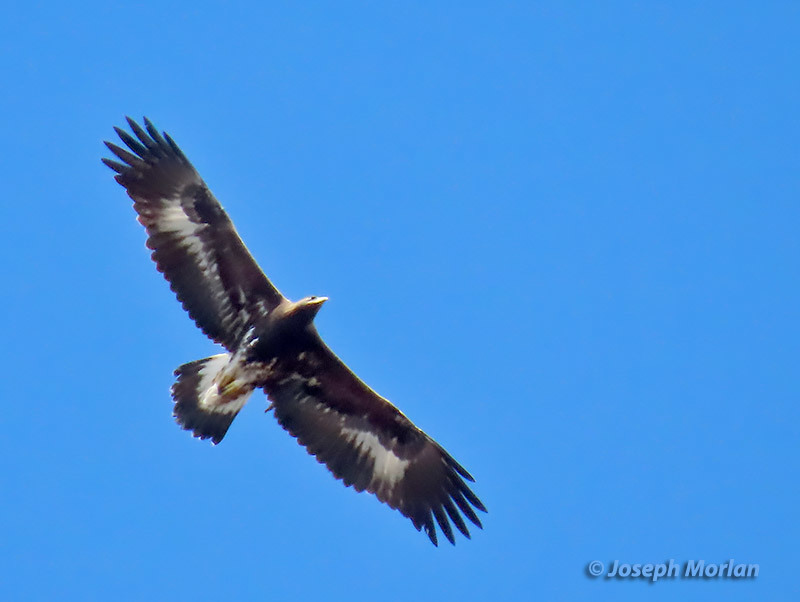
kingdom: Animalia
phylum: Chordata
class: Aves
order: Accipitriformes
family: Accipitridae
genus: Aquila
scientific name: Aquila chrysaetos
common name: Golden eagle
